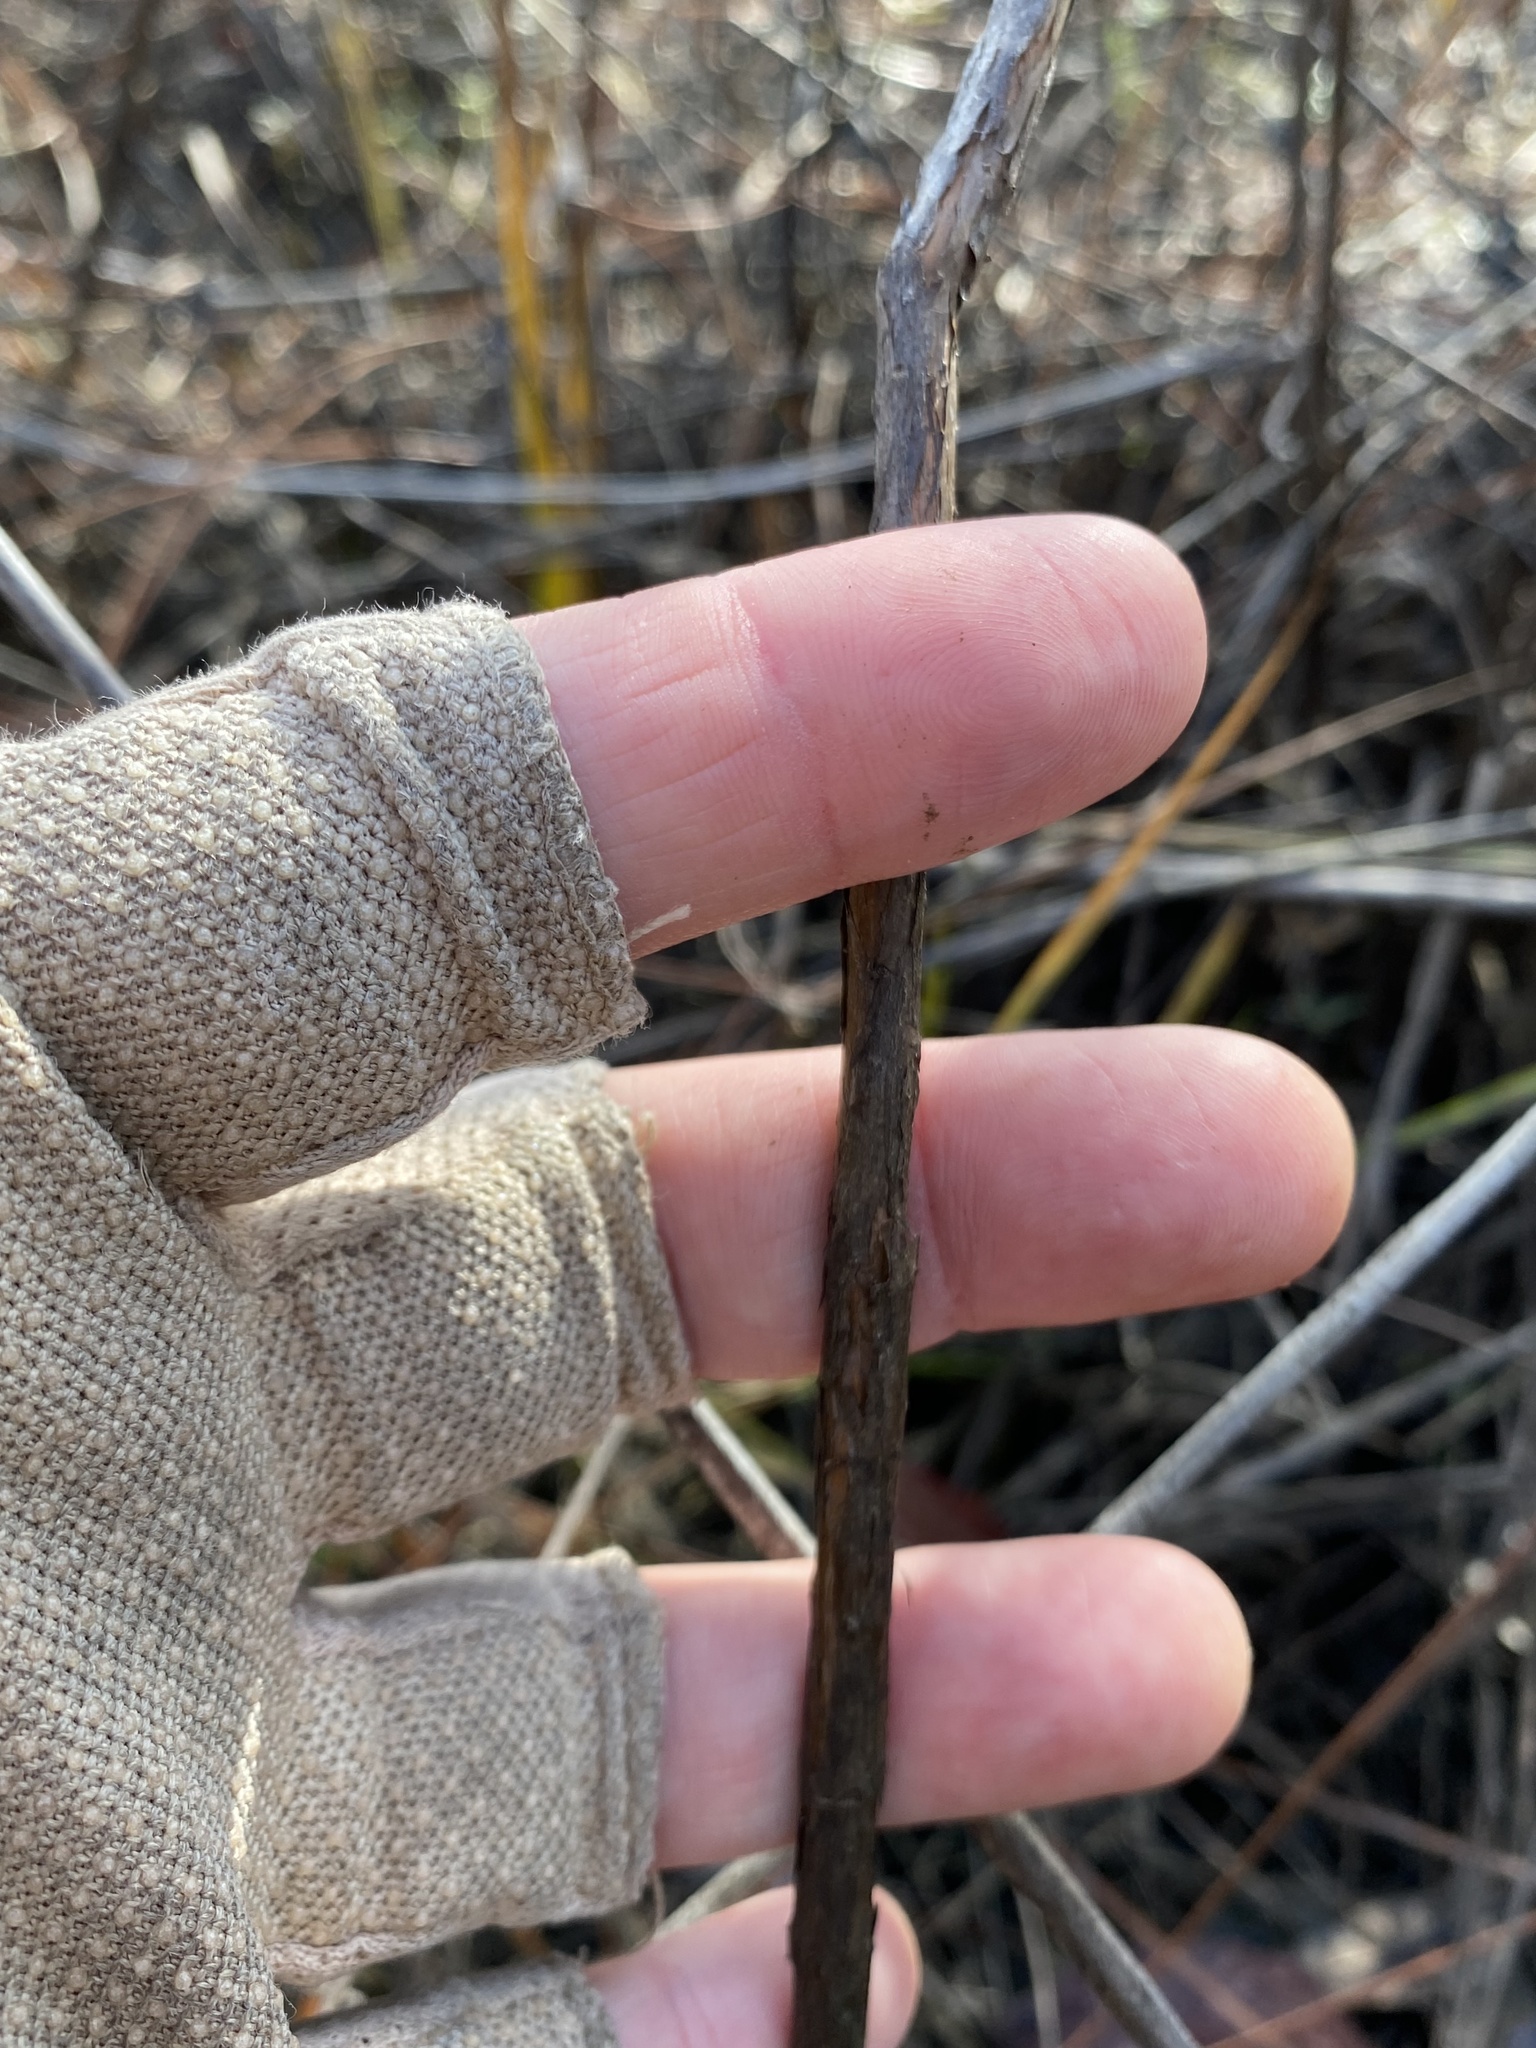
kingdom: Plantae
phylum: Tracheophyta
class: Magnoliopsida
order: Malpighiales
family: Hypericaceae
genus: Hypericum
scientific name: Hypericum myrtifolium
